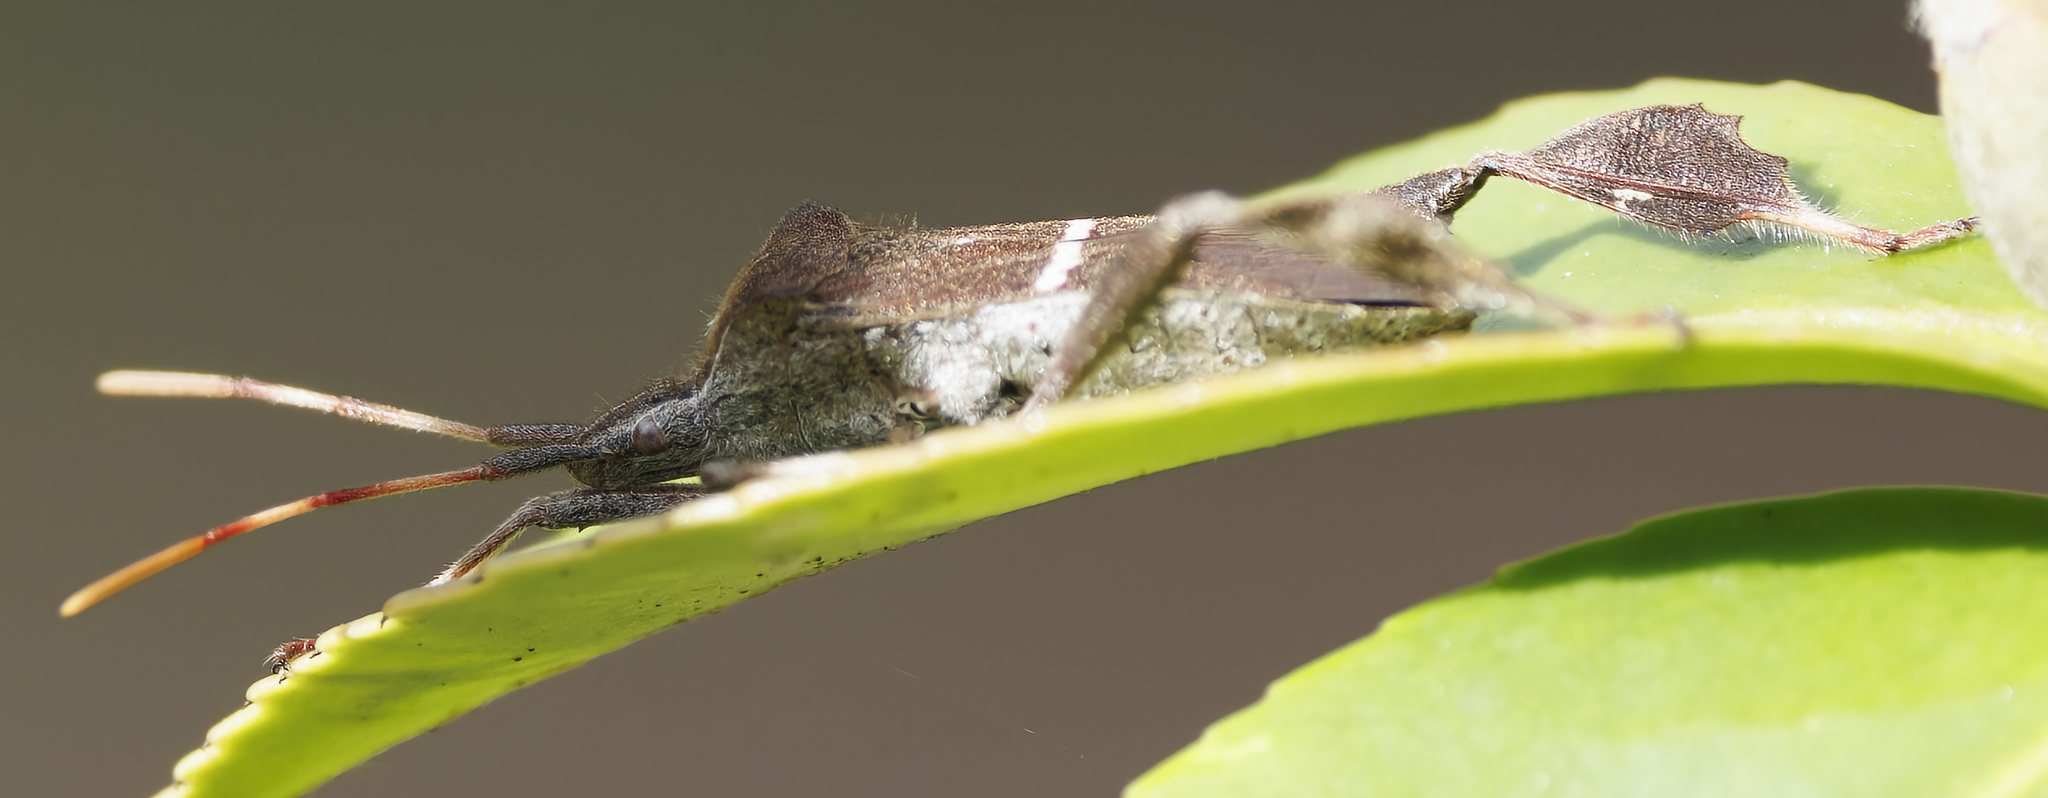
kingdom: Animalia
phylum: Arthropoda
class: Insecta
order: Hemiptera
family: Coreidae
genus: Leptoglossus
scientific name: Leptoglossus phyllopus
